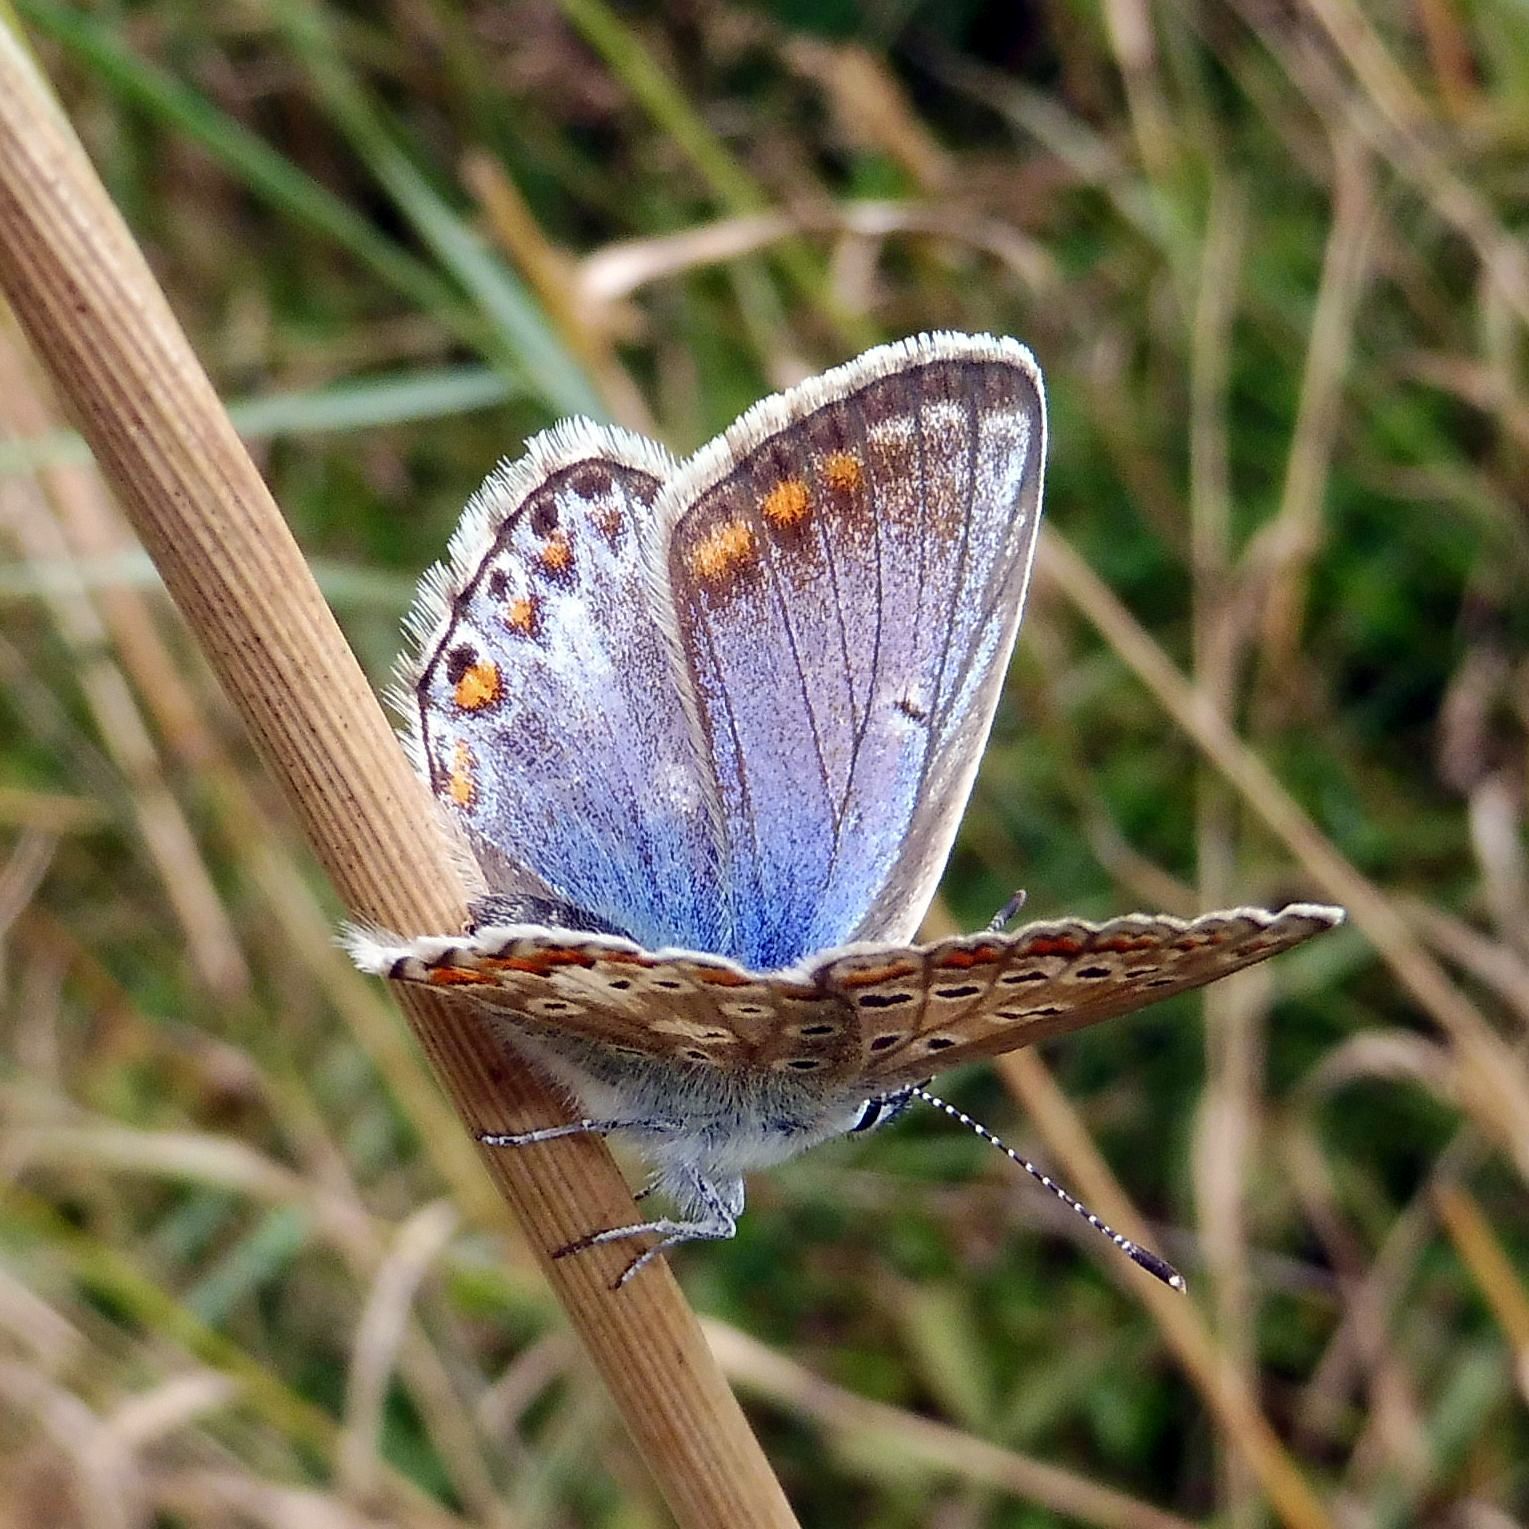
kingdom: Animalia
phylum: Arthropoda
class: Insecta
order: Lepidoptera
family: Lycaenidae
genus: Polyommatus
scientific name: Polyommatus icarus
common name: Common blue
